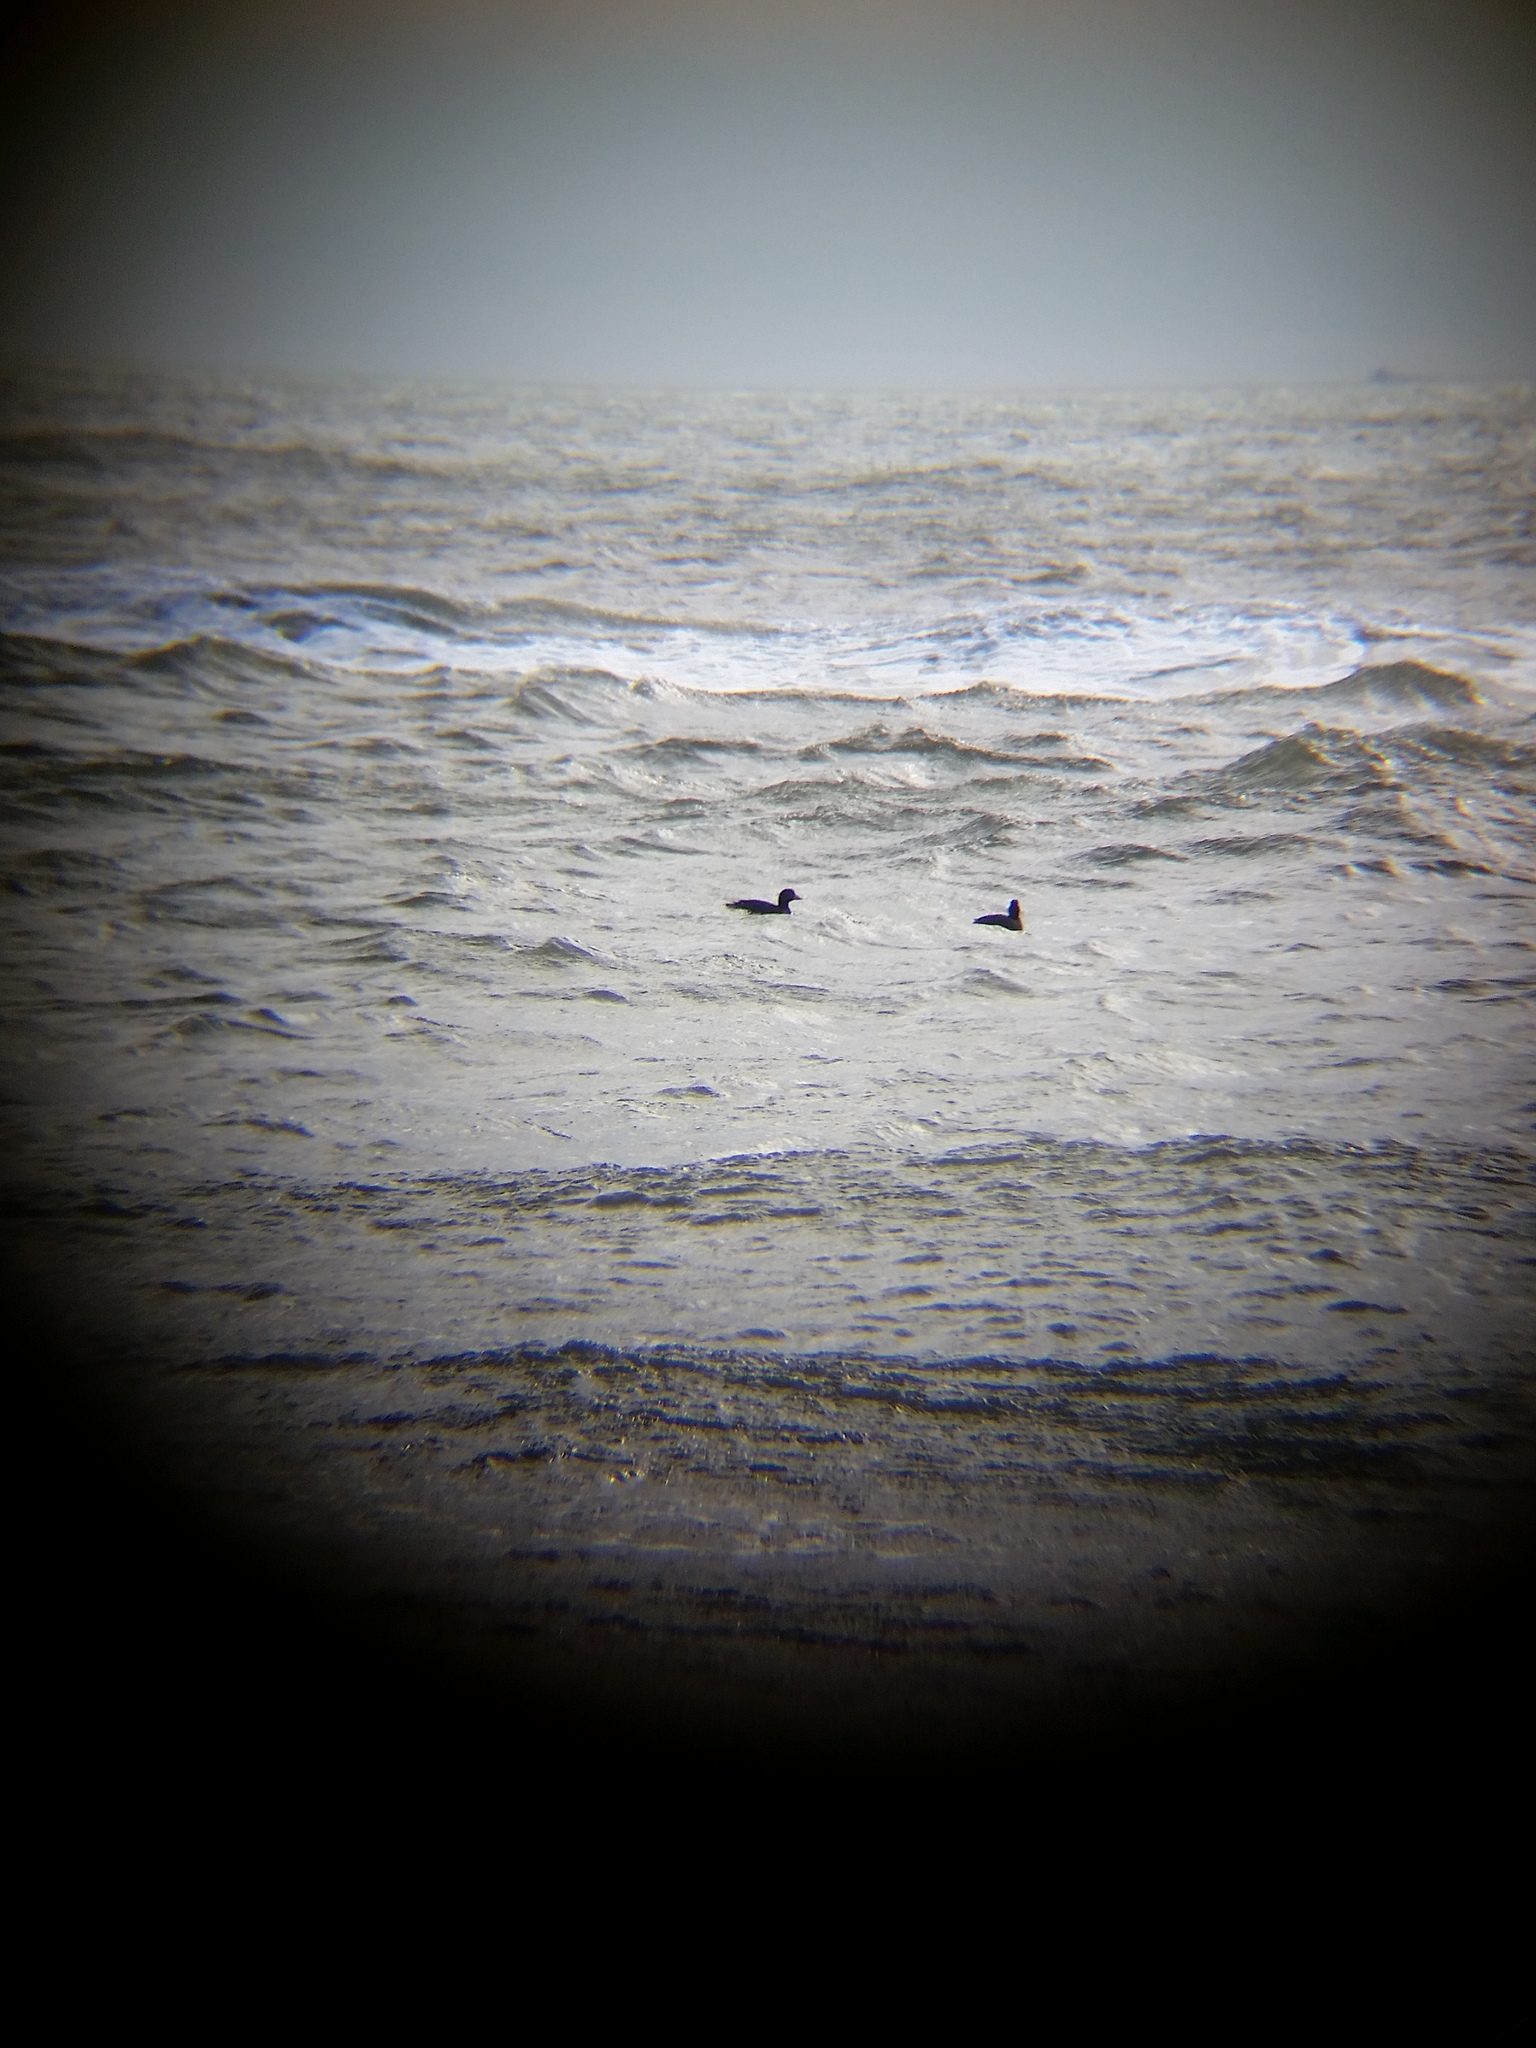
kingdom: Animalia
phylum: Chordata
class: Aves
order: Anseriformes
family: Anatidae
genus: Melanitta
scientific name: Melanitta americana
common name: Black scoter
